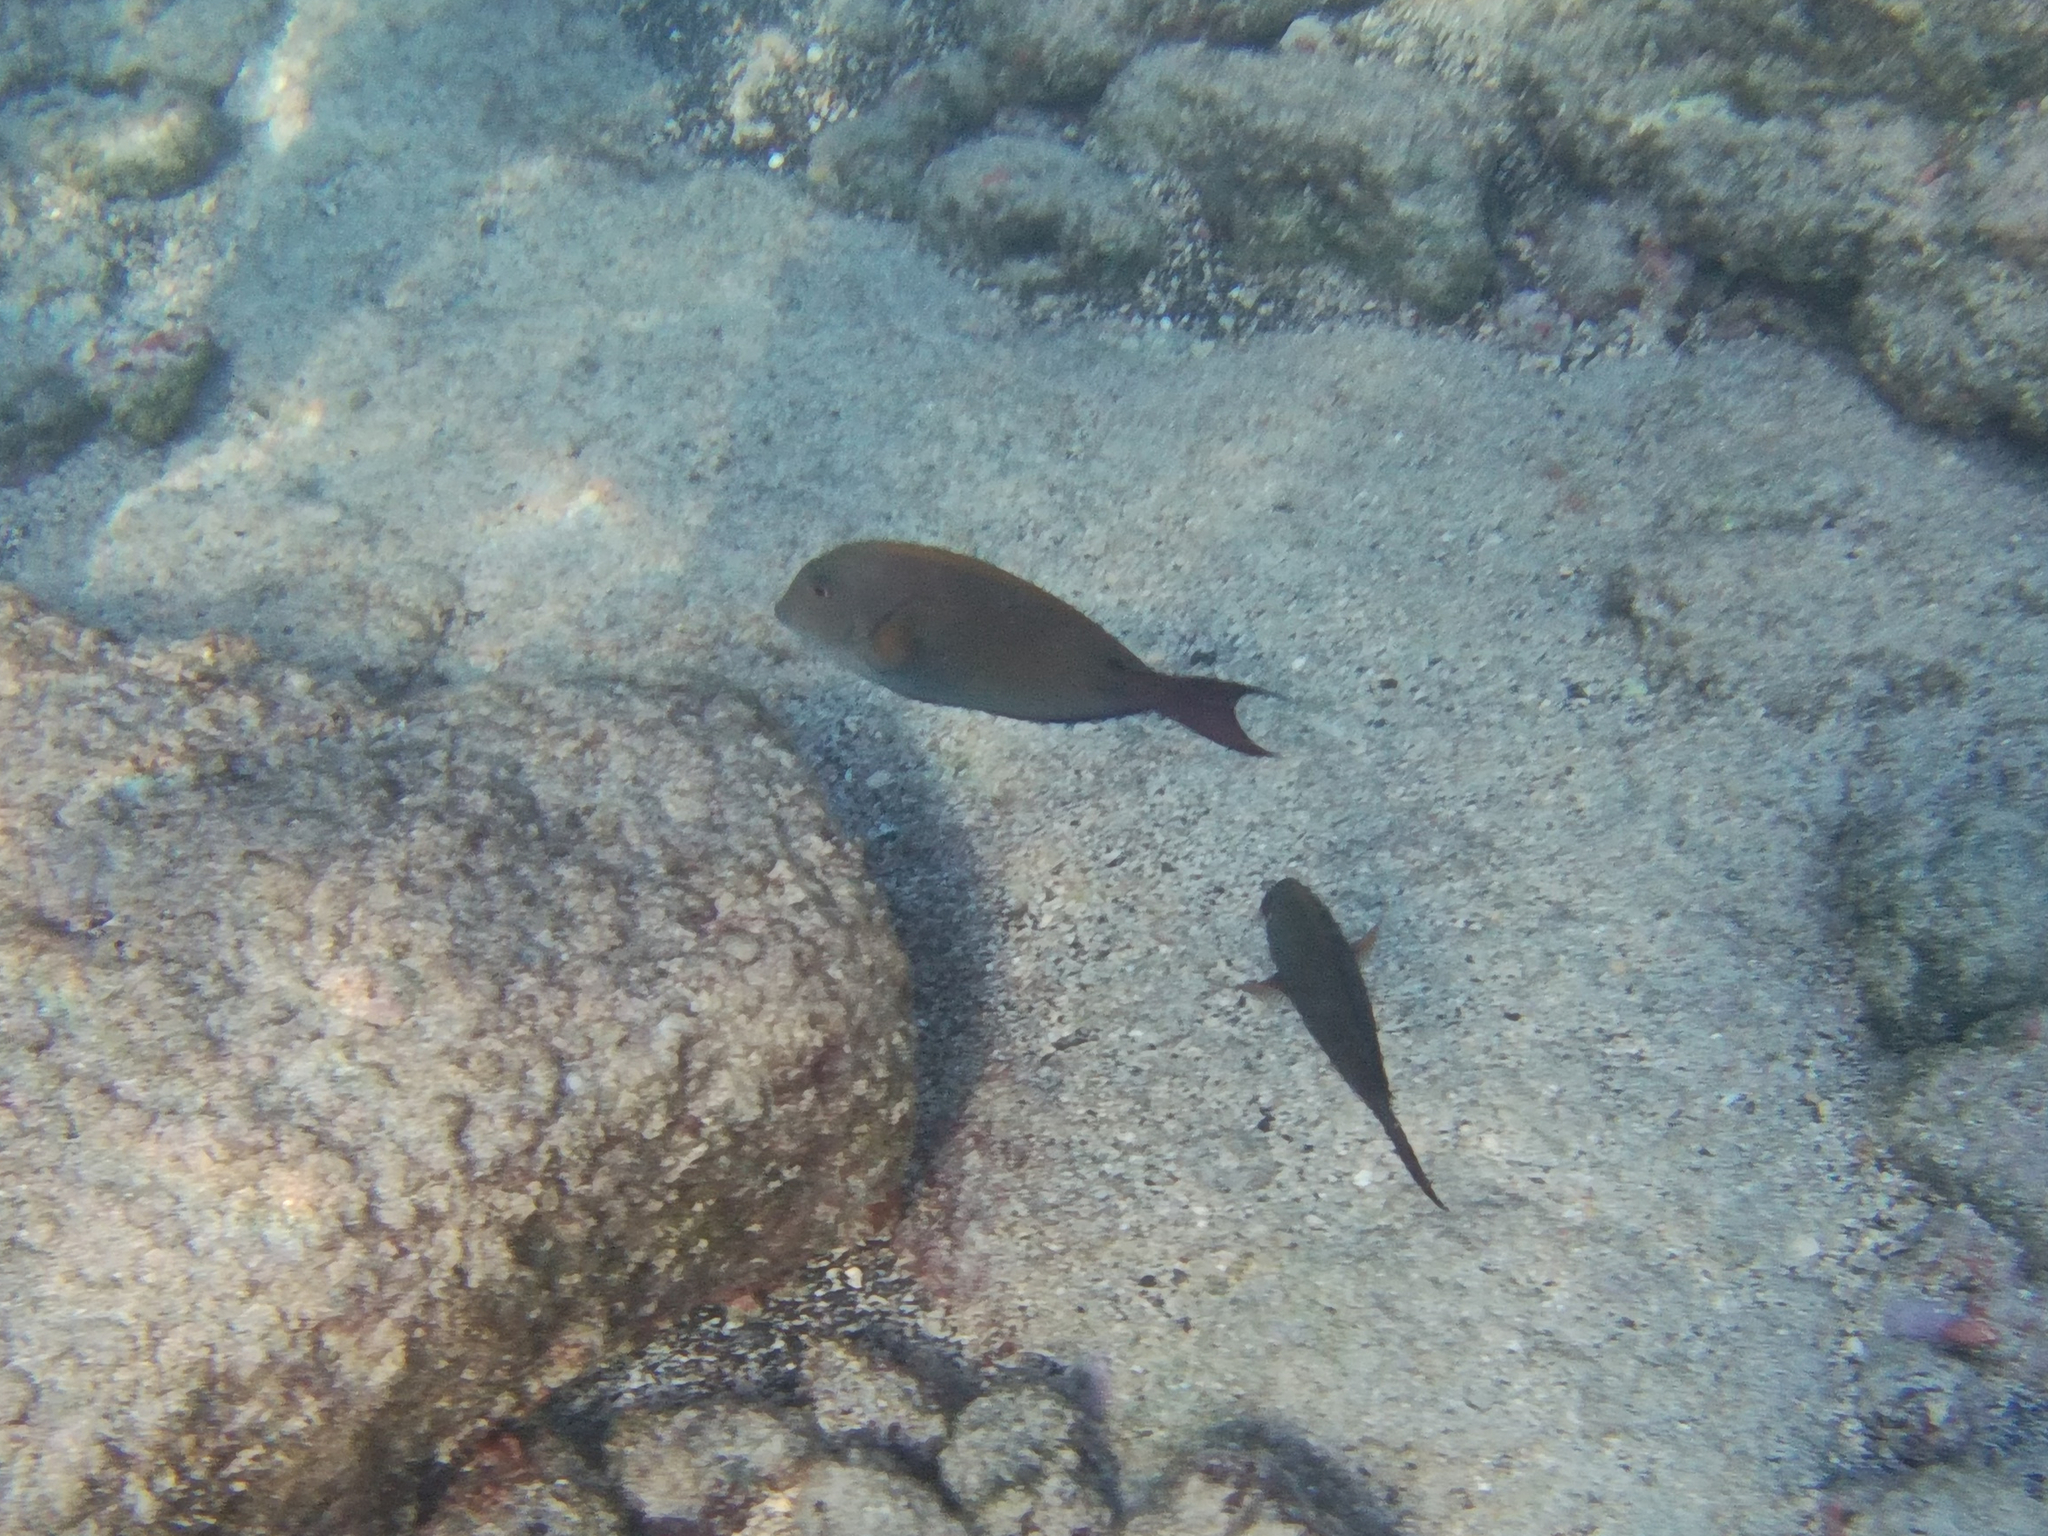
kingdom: Animalia
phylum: Chordata
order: Perciformes
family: Acanthuridae
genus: Acanthurus
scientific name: Acanthurus nigrofuscus
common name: Blackspot surgeonfish
